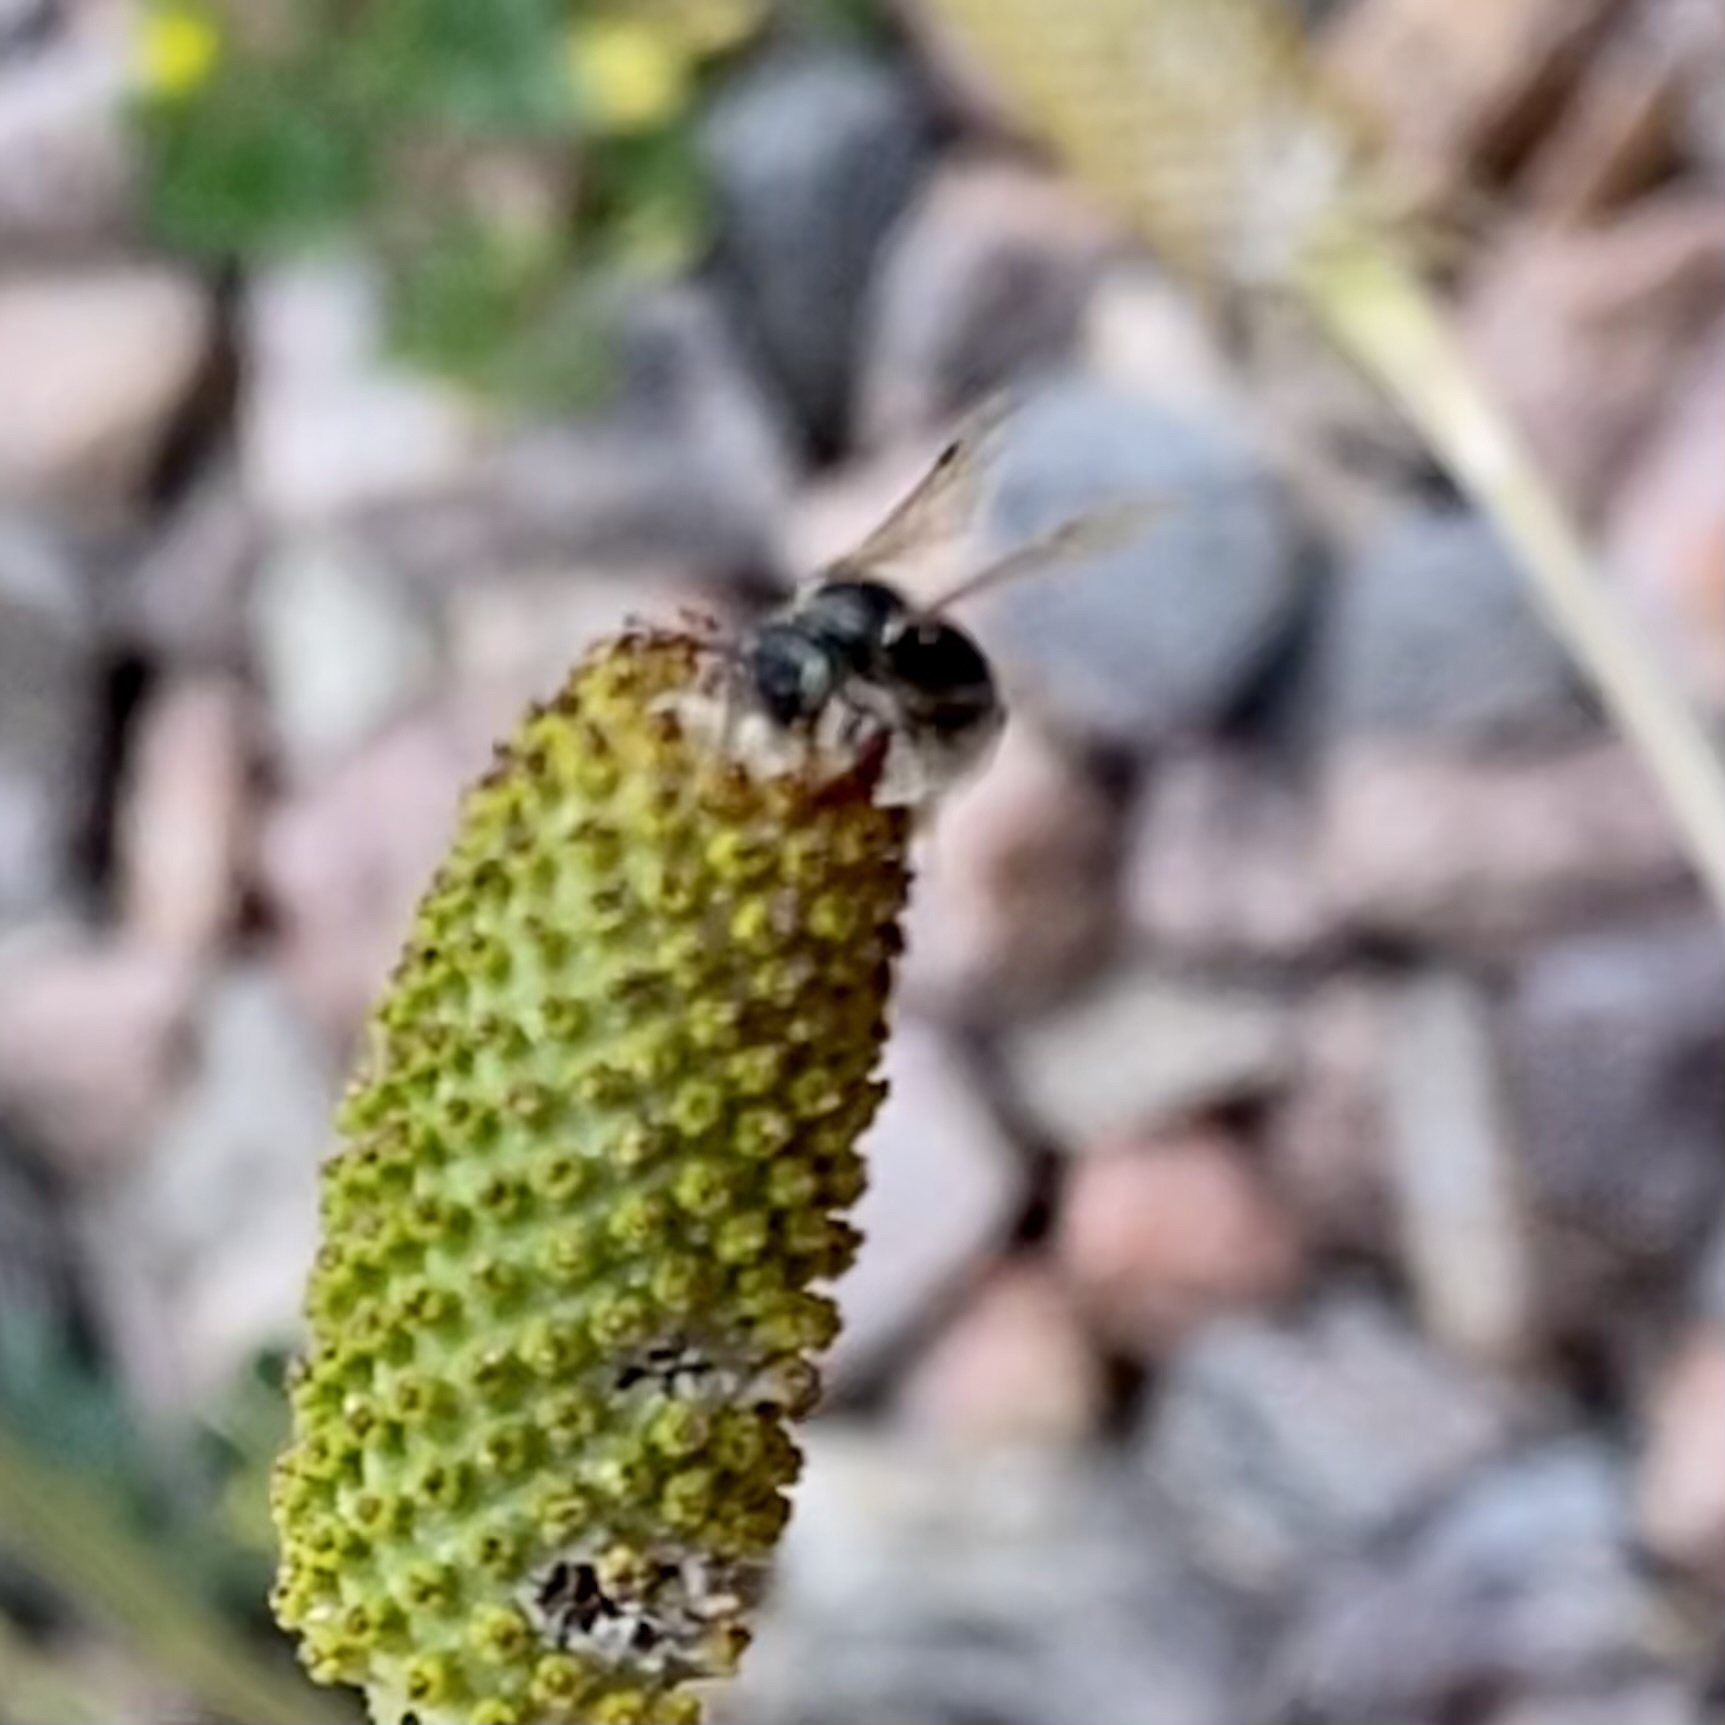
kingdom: Animalia
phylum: Arthropoda
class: Insecta
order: Hymenoptera
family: Andrenidae
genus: Protandrena
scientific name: Protandrena
